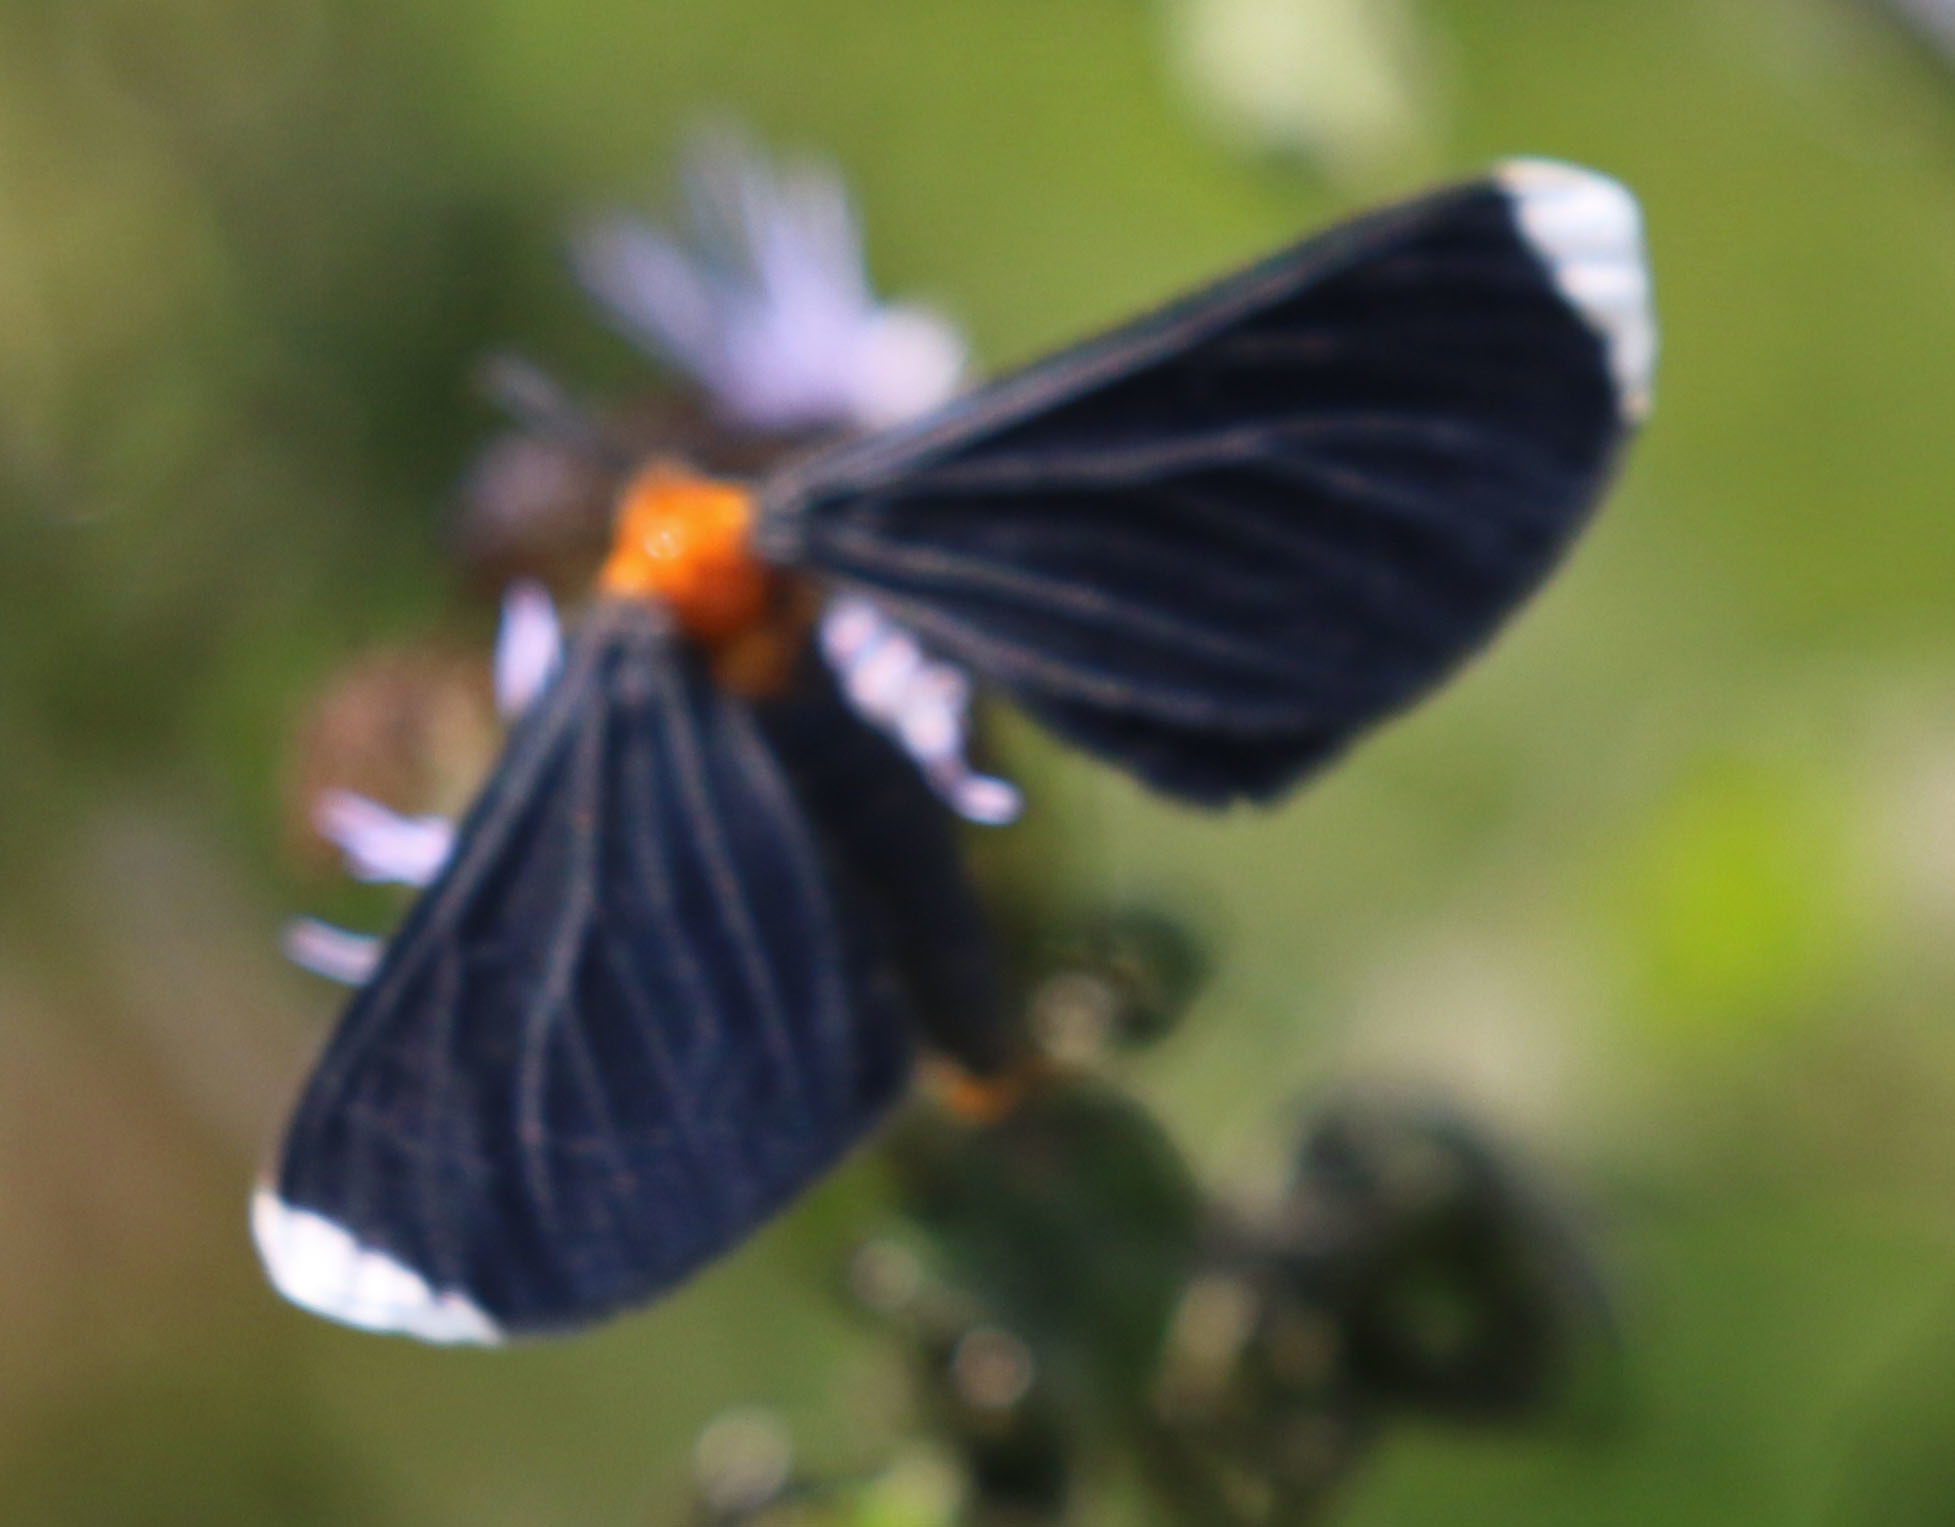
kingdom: Animalia
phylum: Arthropoda
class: Insecta
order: Lepidoptera
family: Geometridae
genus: Melanchroia
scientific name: Melanchroia chephise
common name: White-tipped black
